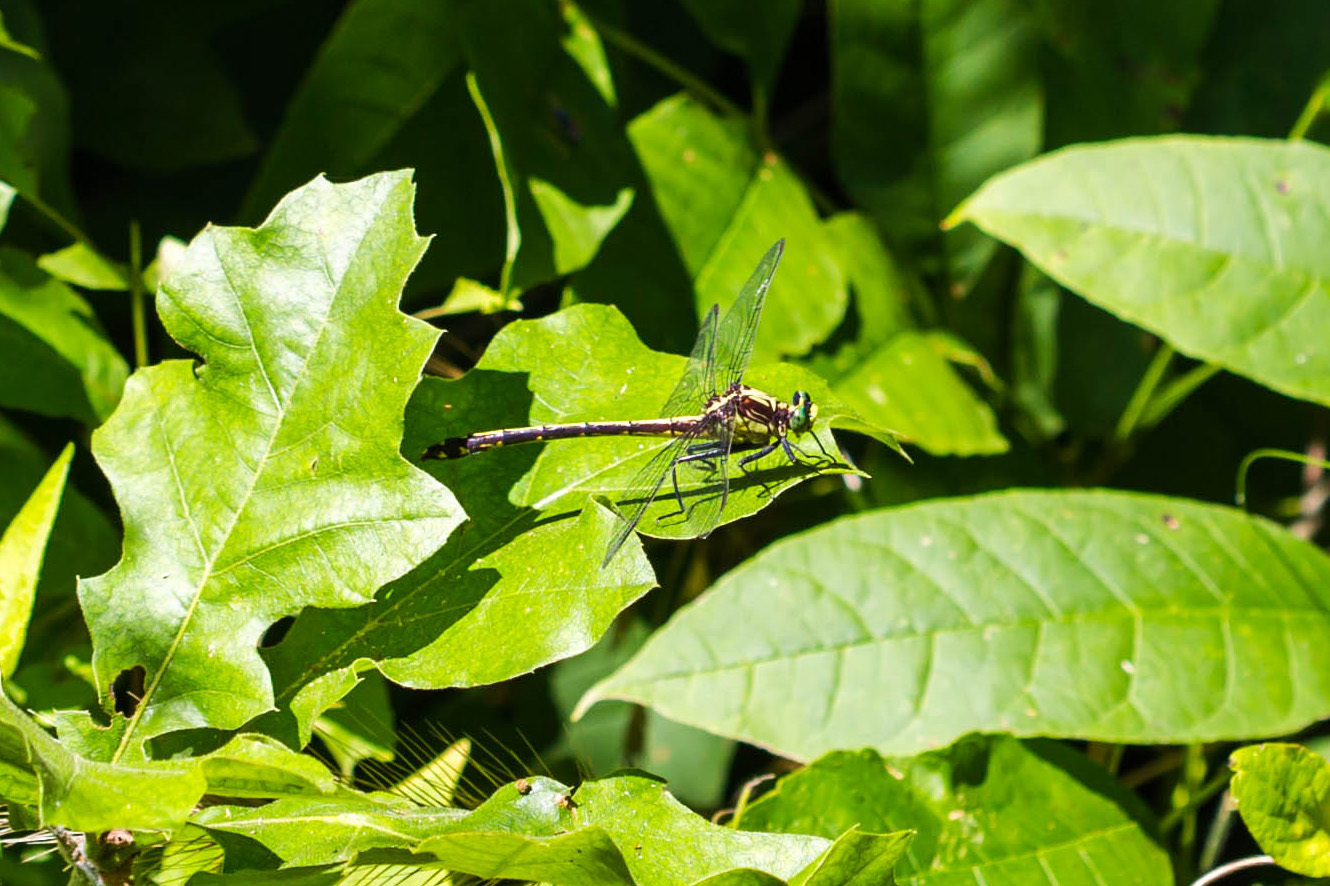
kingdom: Animalia
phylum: Arthropoda
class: Insecta
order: Odonata
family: Gomphidae
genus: Dromogomphus
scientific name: Dromogomphus spinosus
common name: Black-shouldered spinyleg
